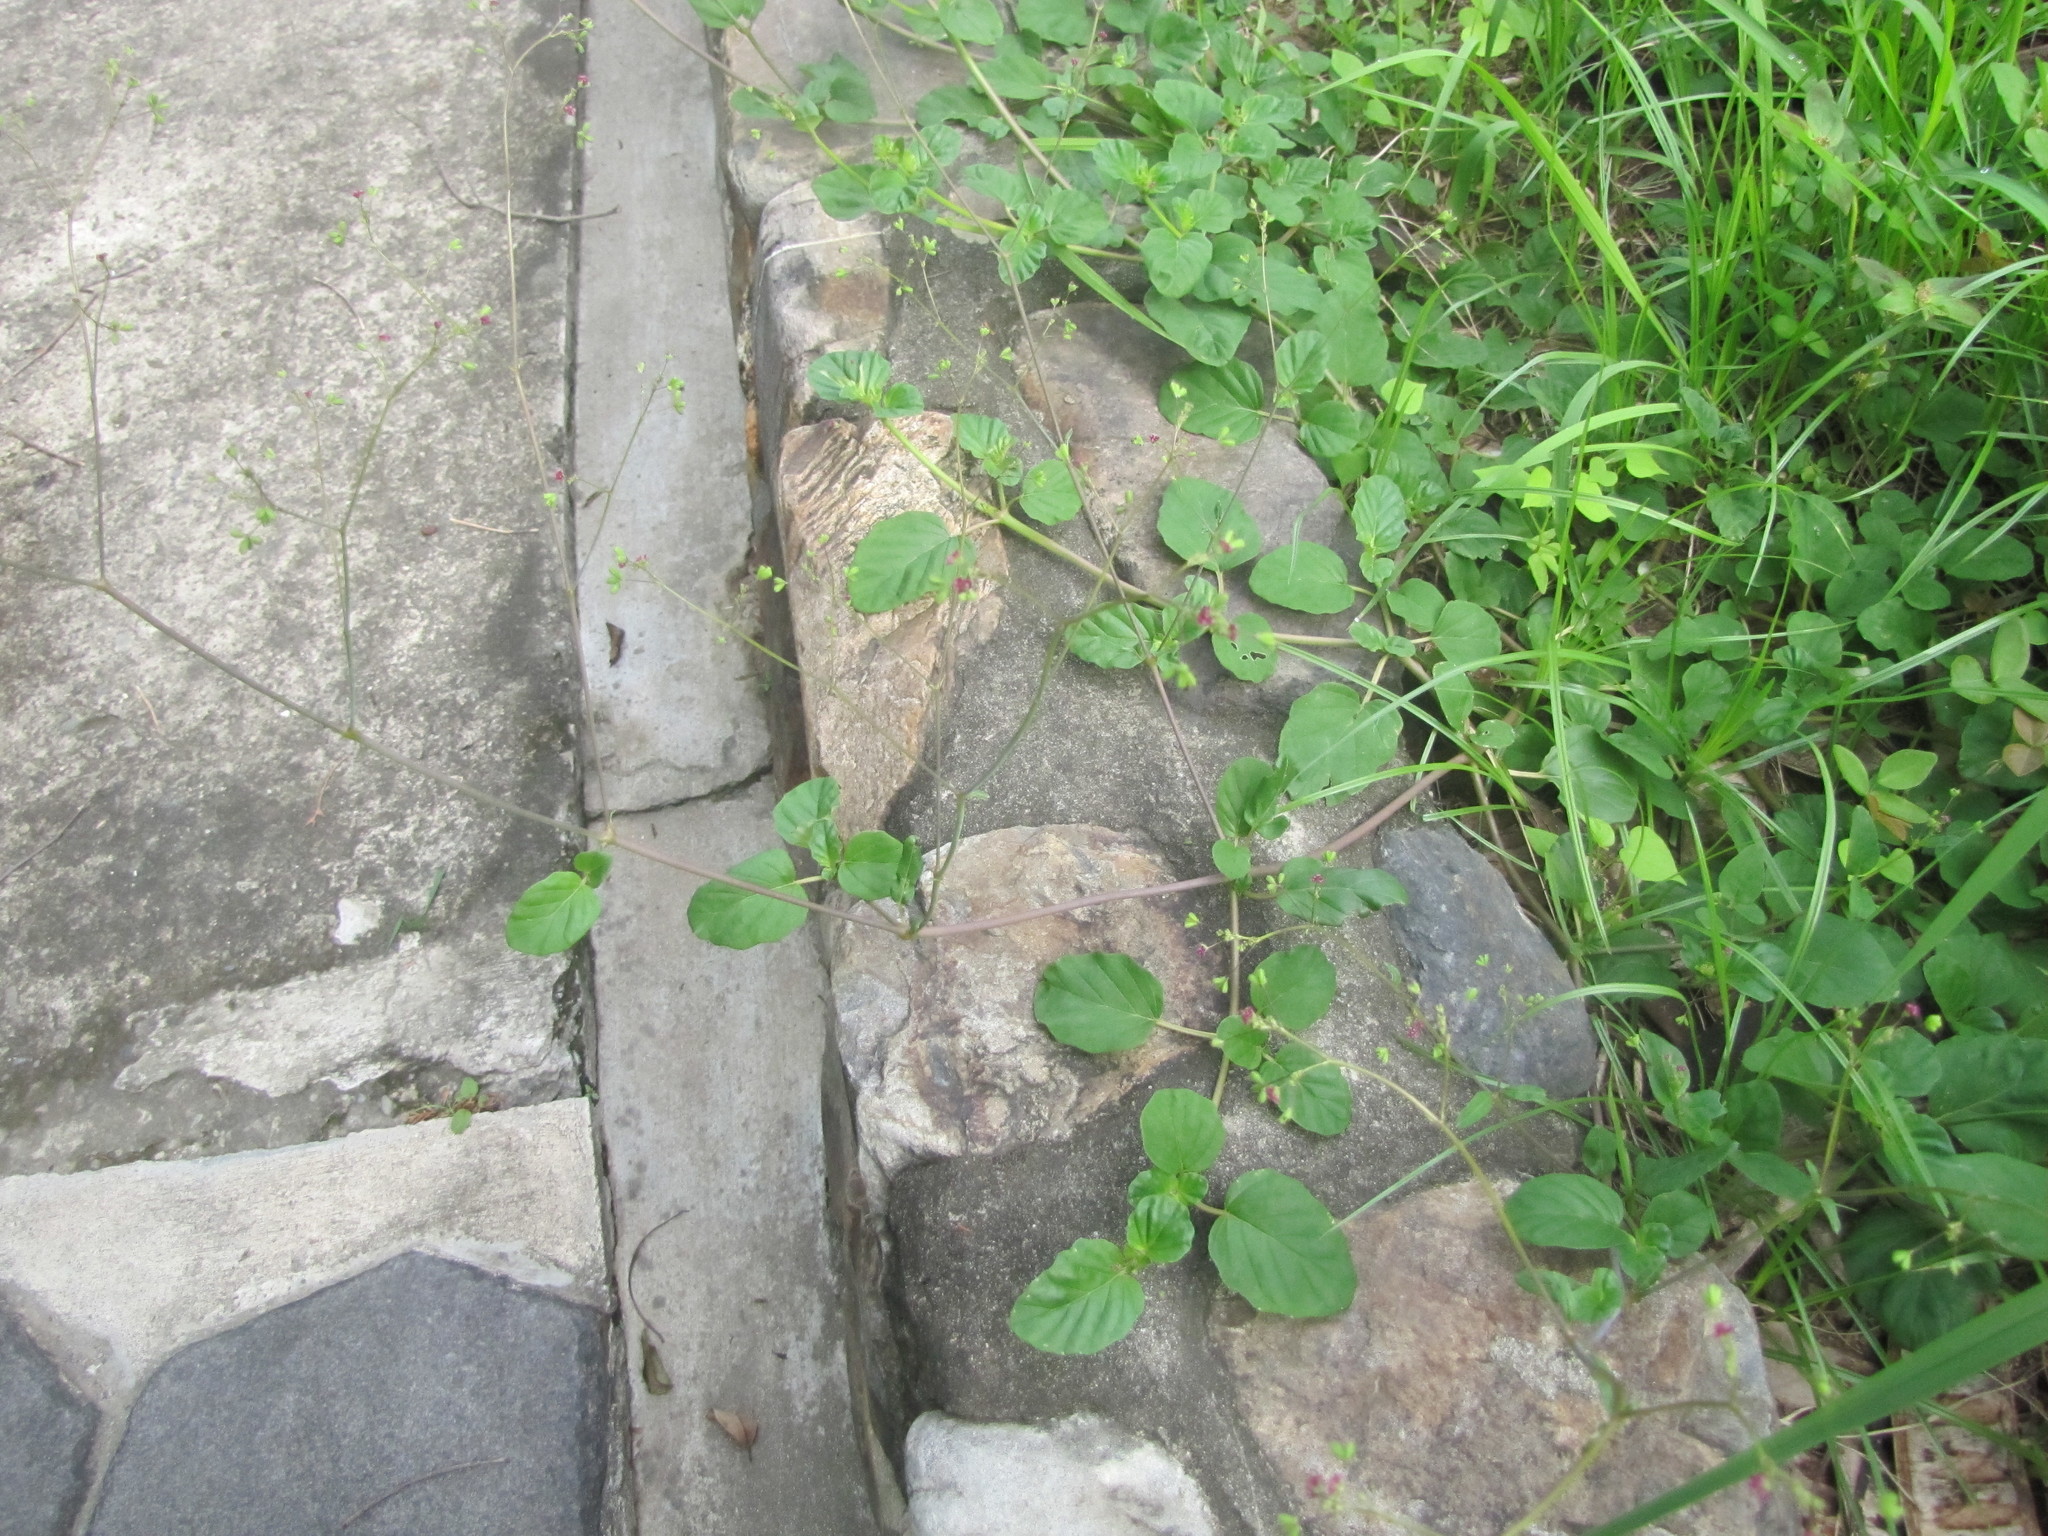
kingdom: Plantae
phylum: Tracheophyta
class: Magnoliopsida
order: Caryophyllales
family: Nyctaginaceae
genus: Boerhavia
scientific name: Boerhavia coccinea
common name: Scarlet spiderling
